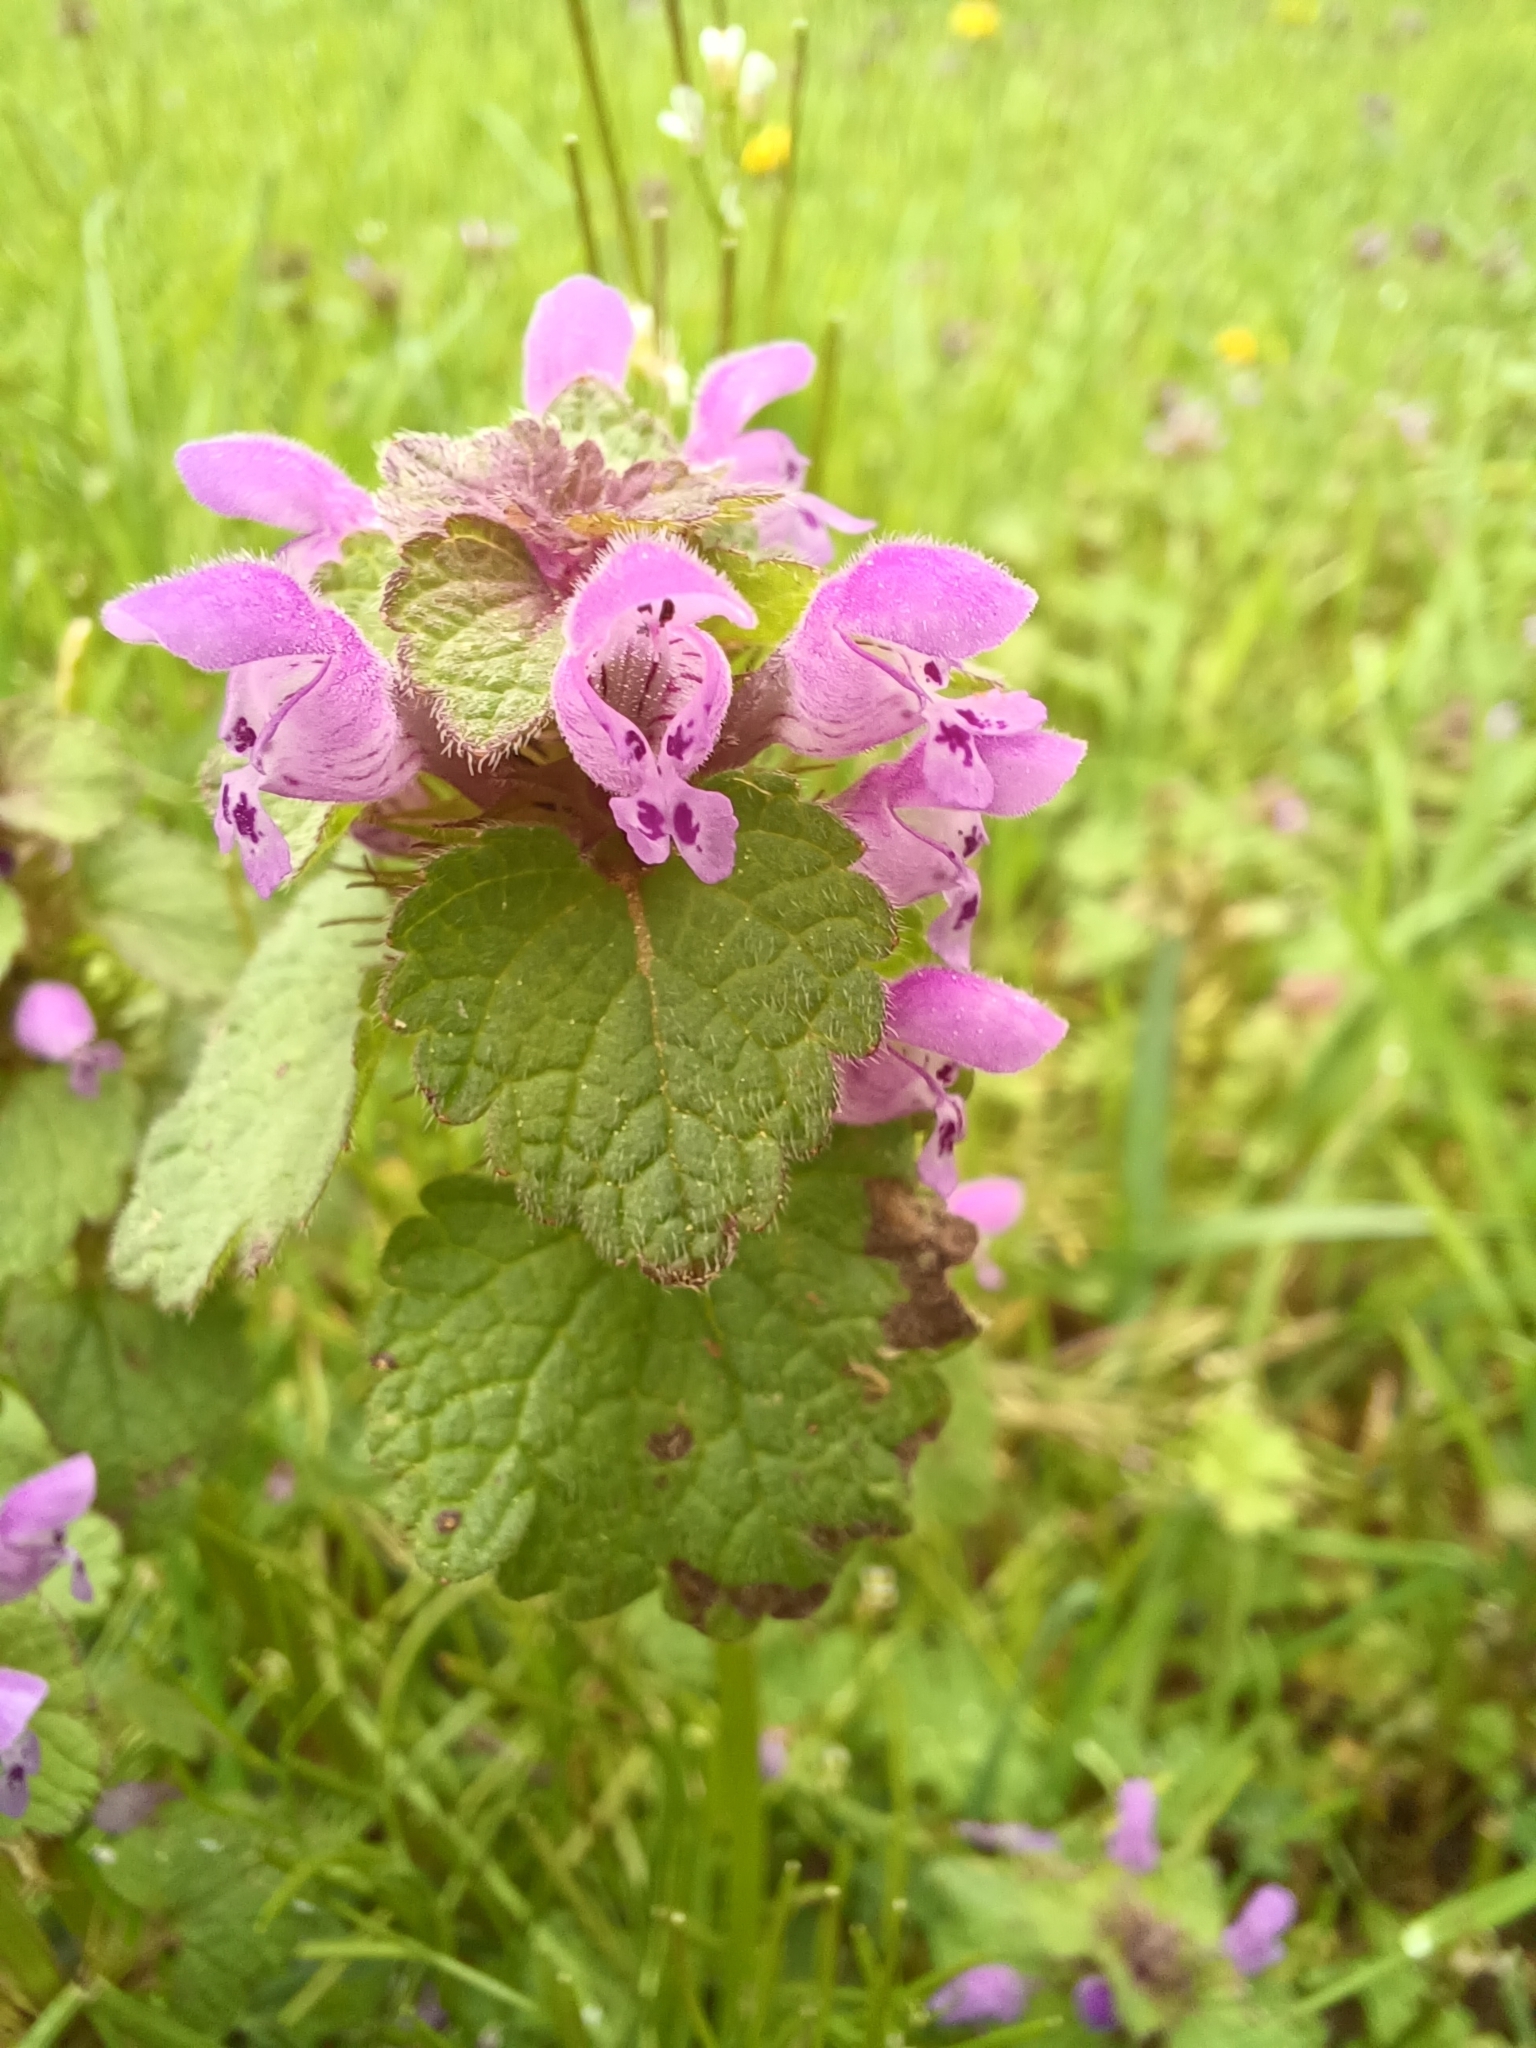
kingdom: Plantae
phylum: Tracheophyta
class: Magnoliopsida
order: Lamiales
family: Lamiaceae
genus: Lamium
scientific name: Lamium purpureum
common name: Red dead-nettle
